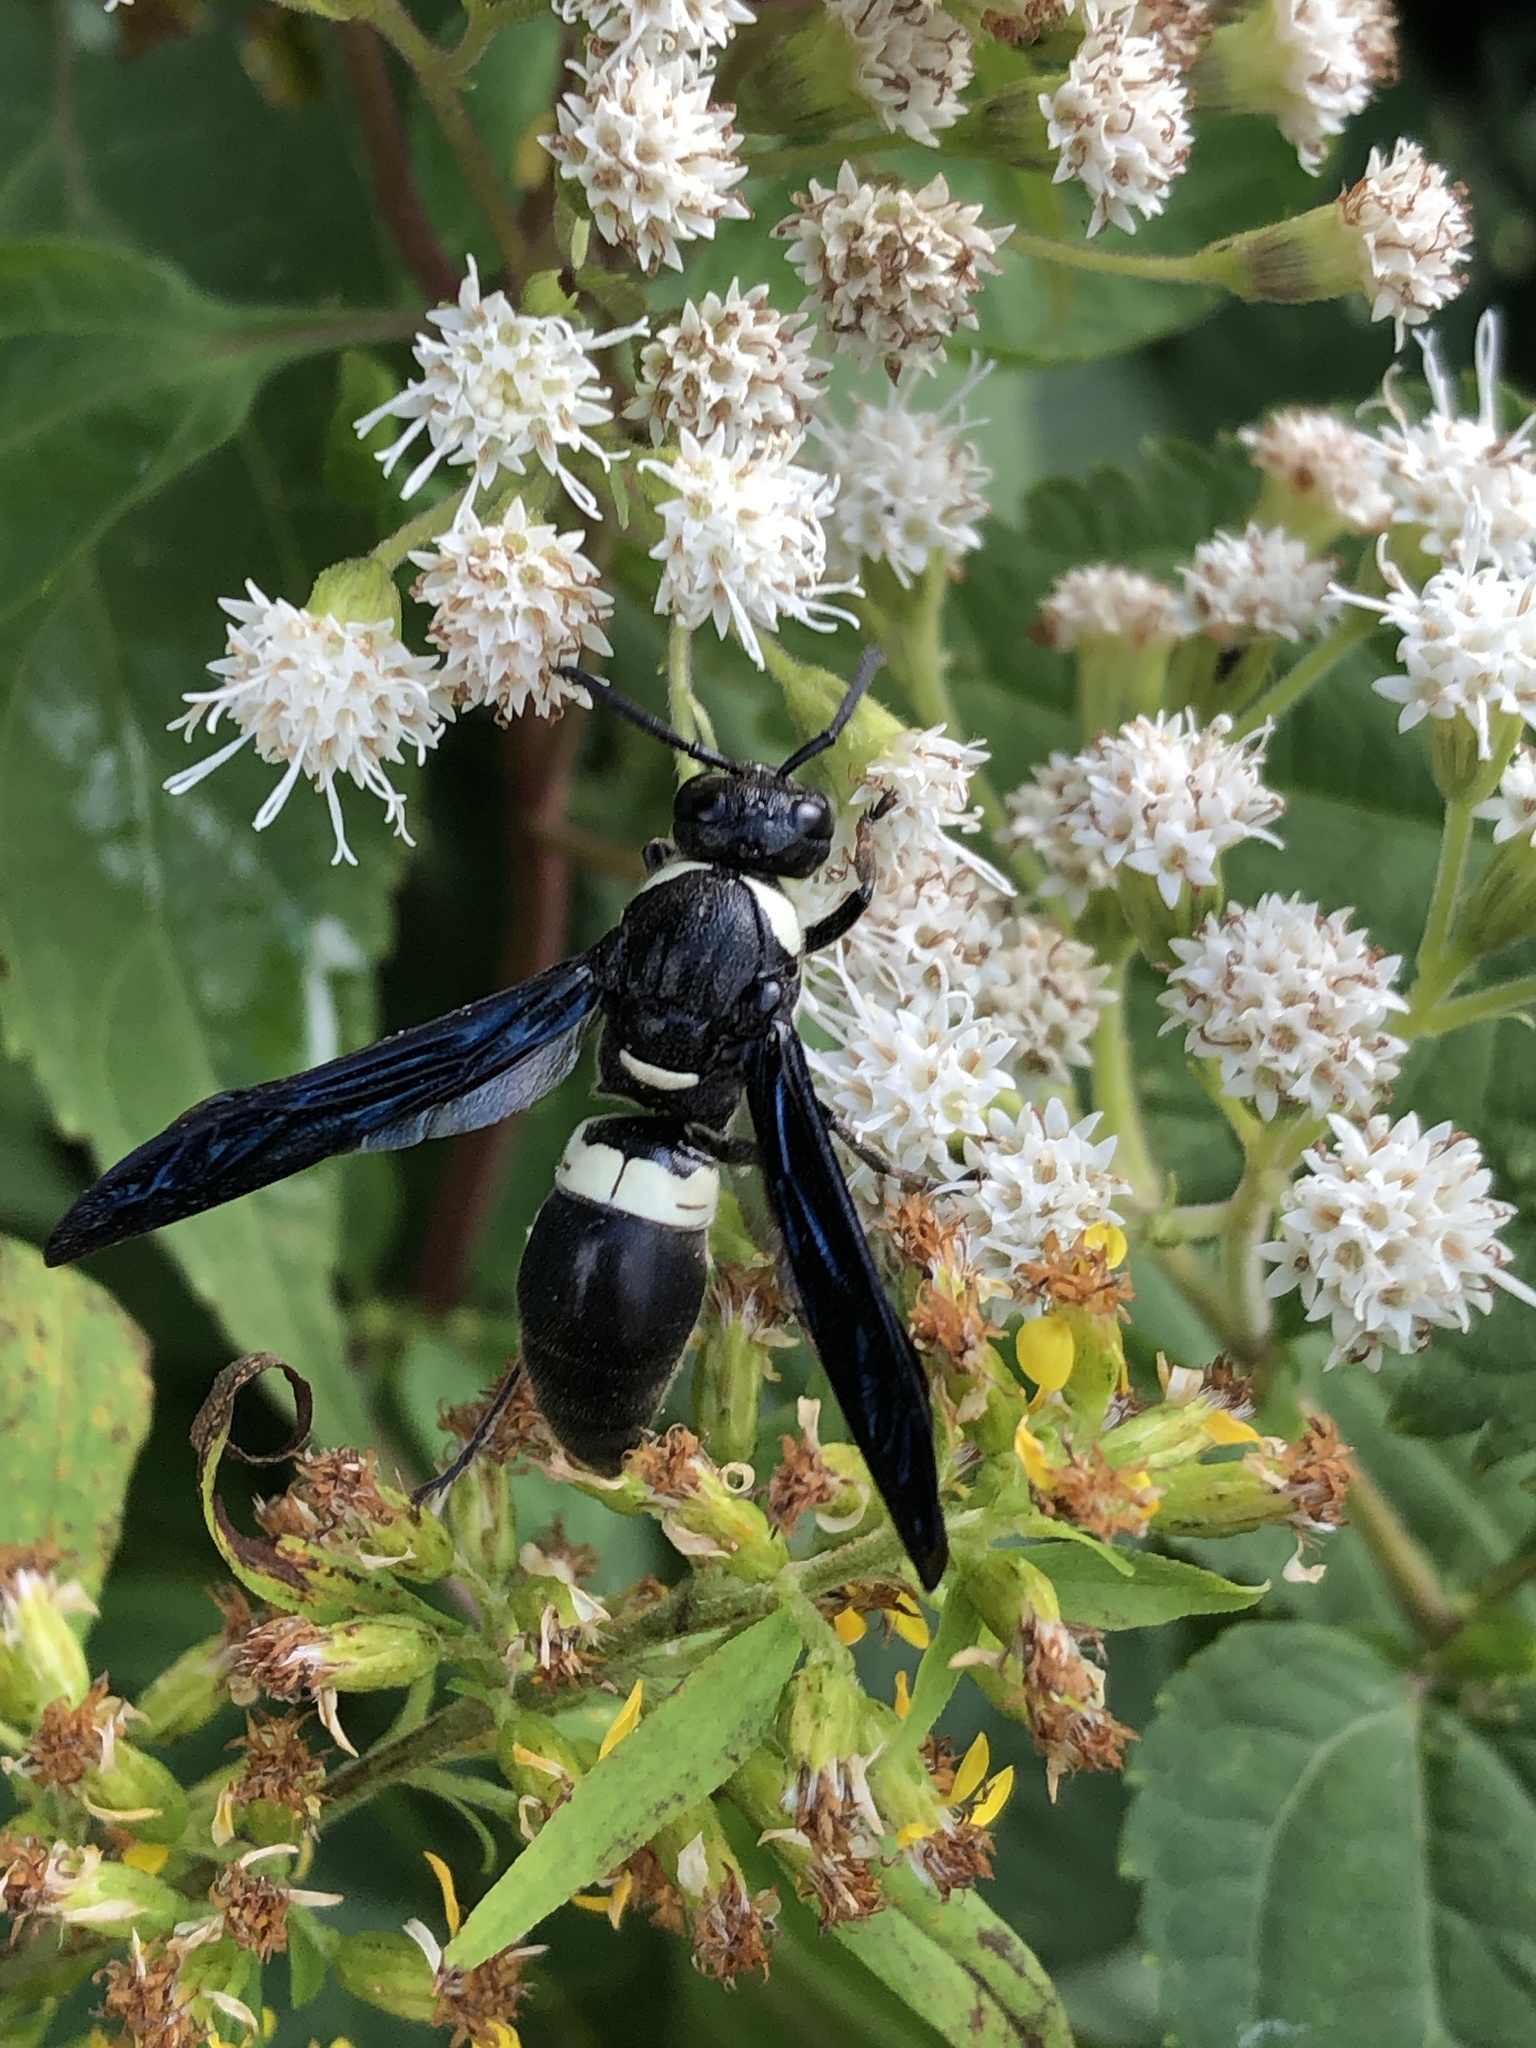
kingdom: Animalia
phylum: Arthropoda
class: Insecta
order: Hymenoptera
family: Eumenidae
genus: Monobia
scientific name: Monobia quadridens
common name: Four-toothed mason wasp
